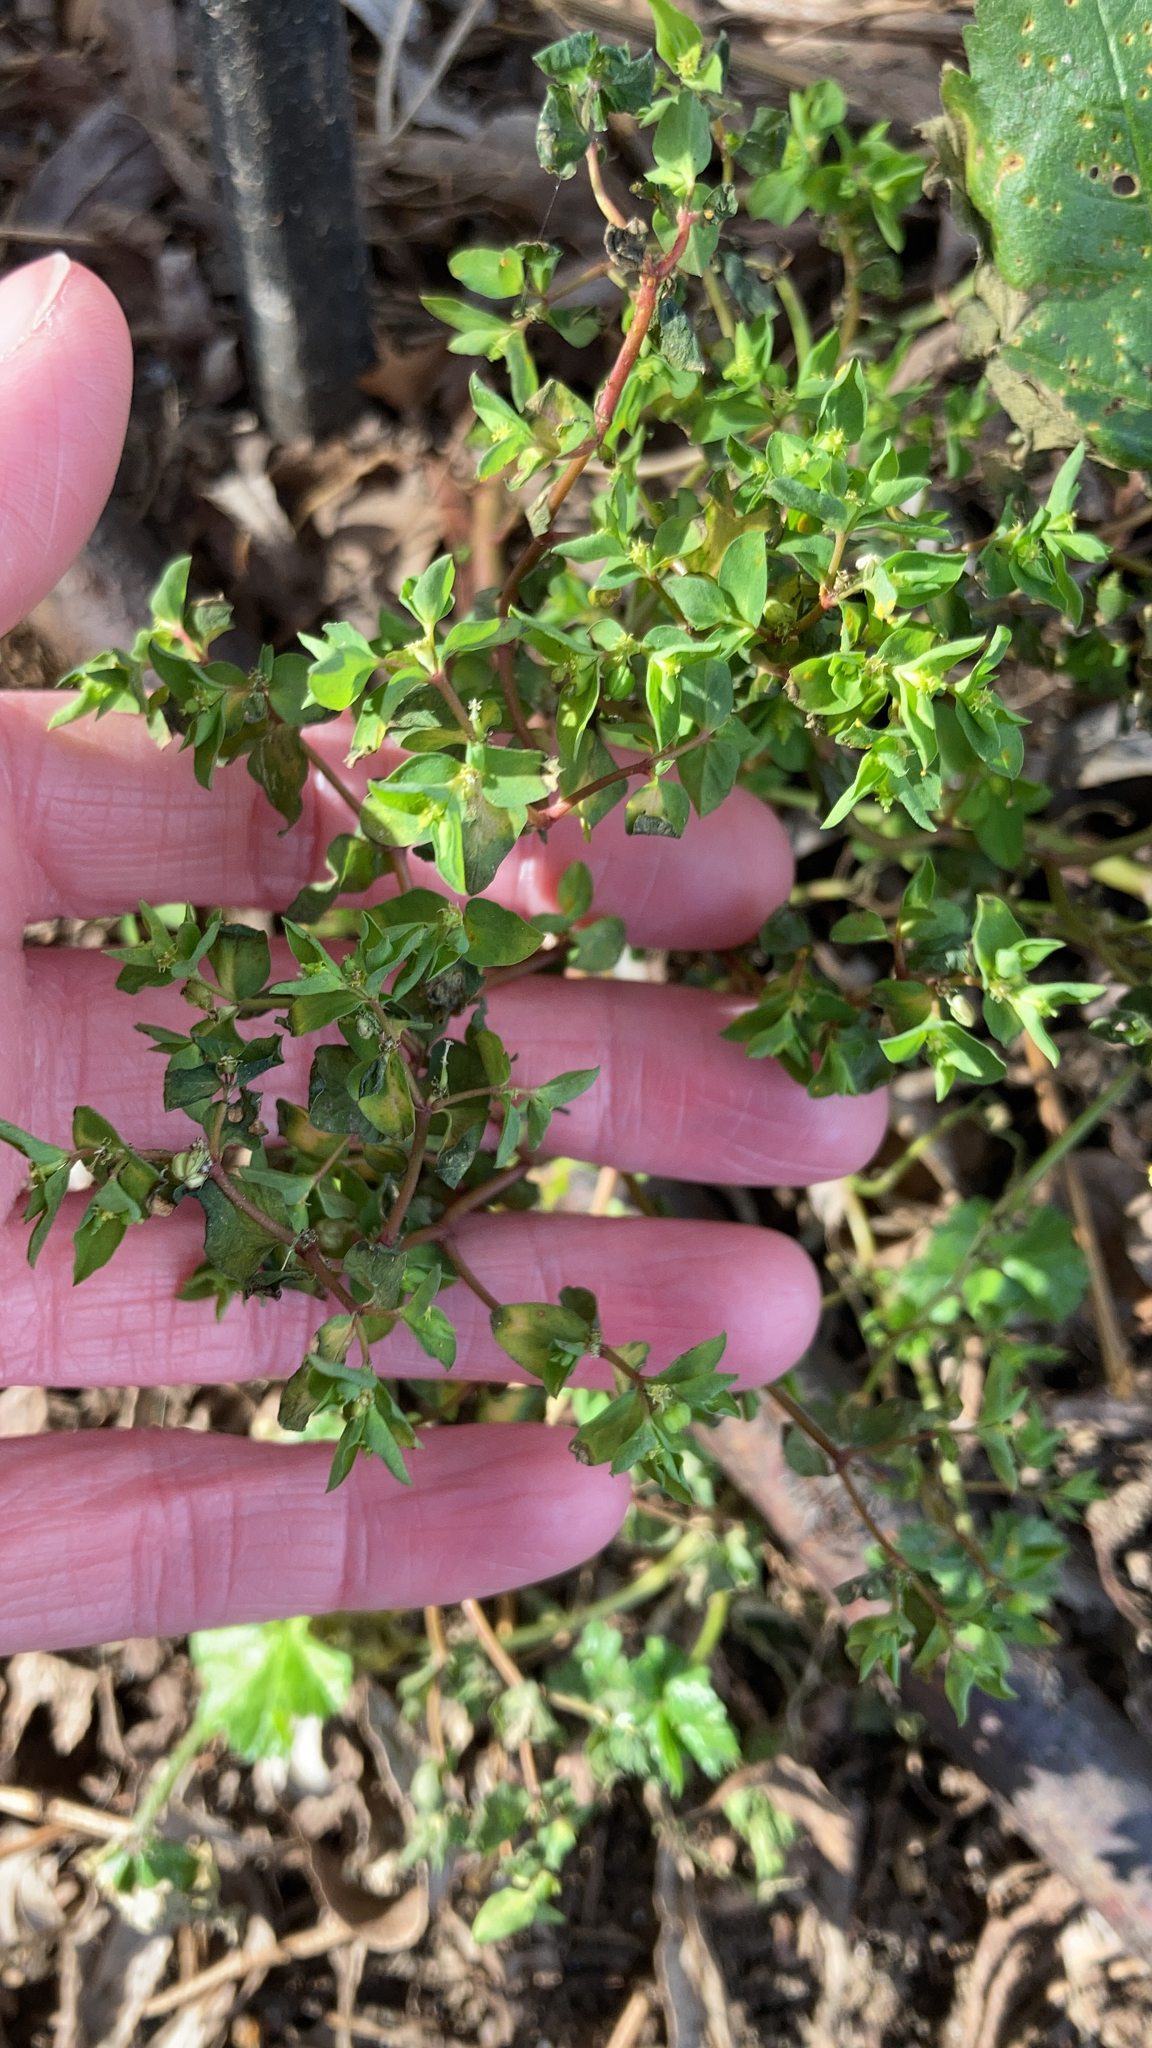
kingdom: Plantae
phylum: Tracheophyta
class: Magnoliopsida
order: Malpighiales
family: Euphorbiaceae
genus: Euphorbia
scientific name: Euphorbia peplus
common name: Petty spurge
